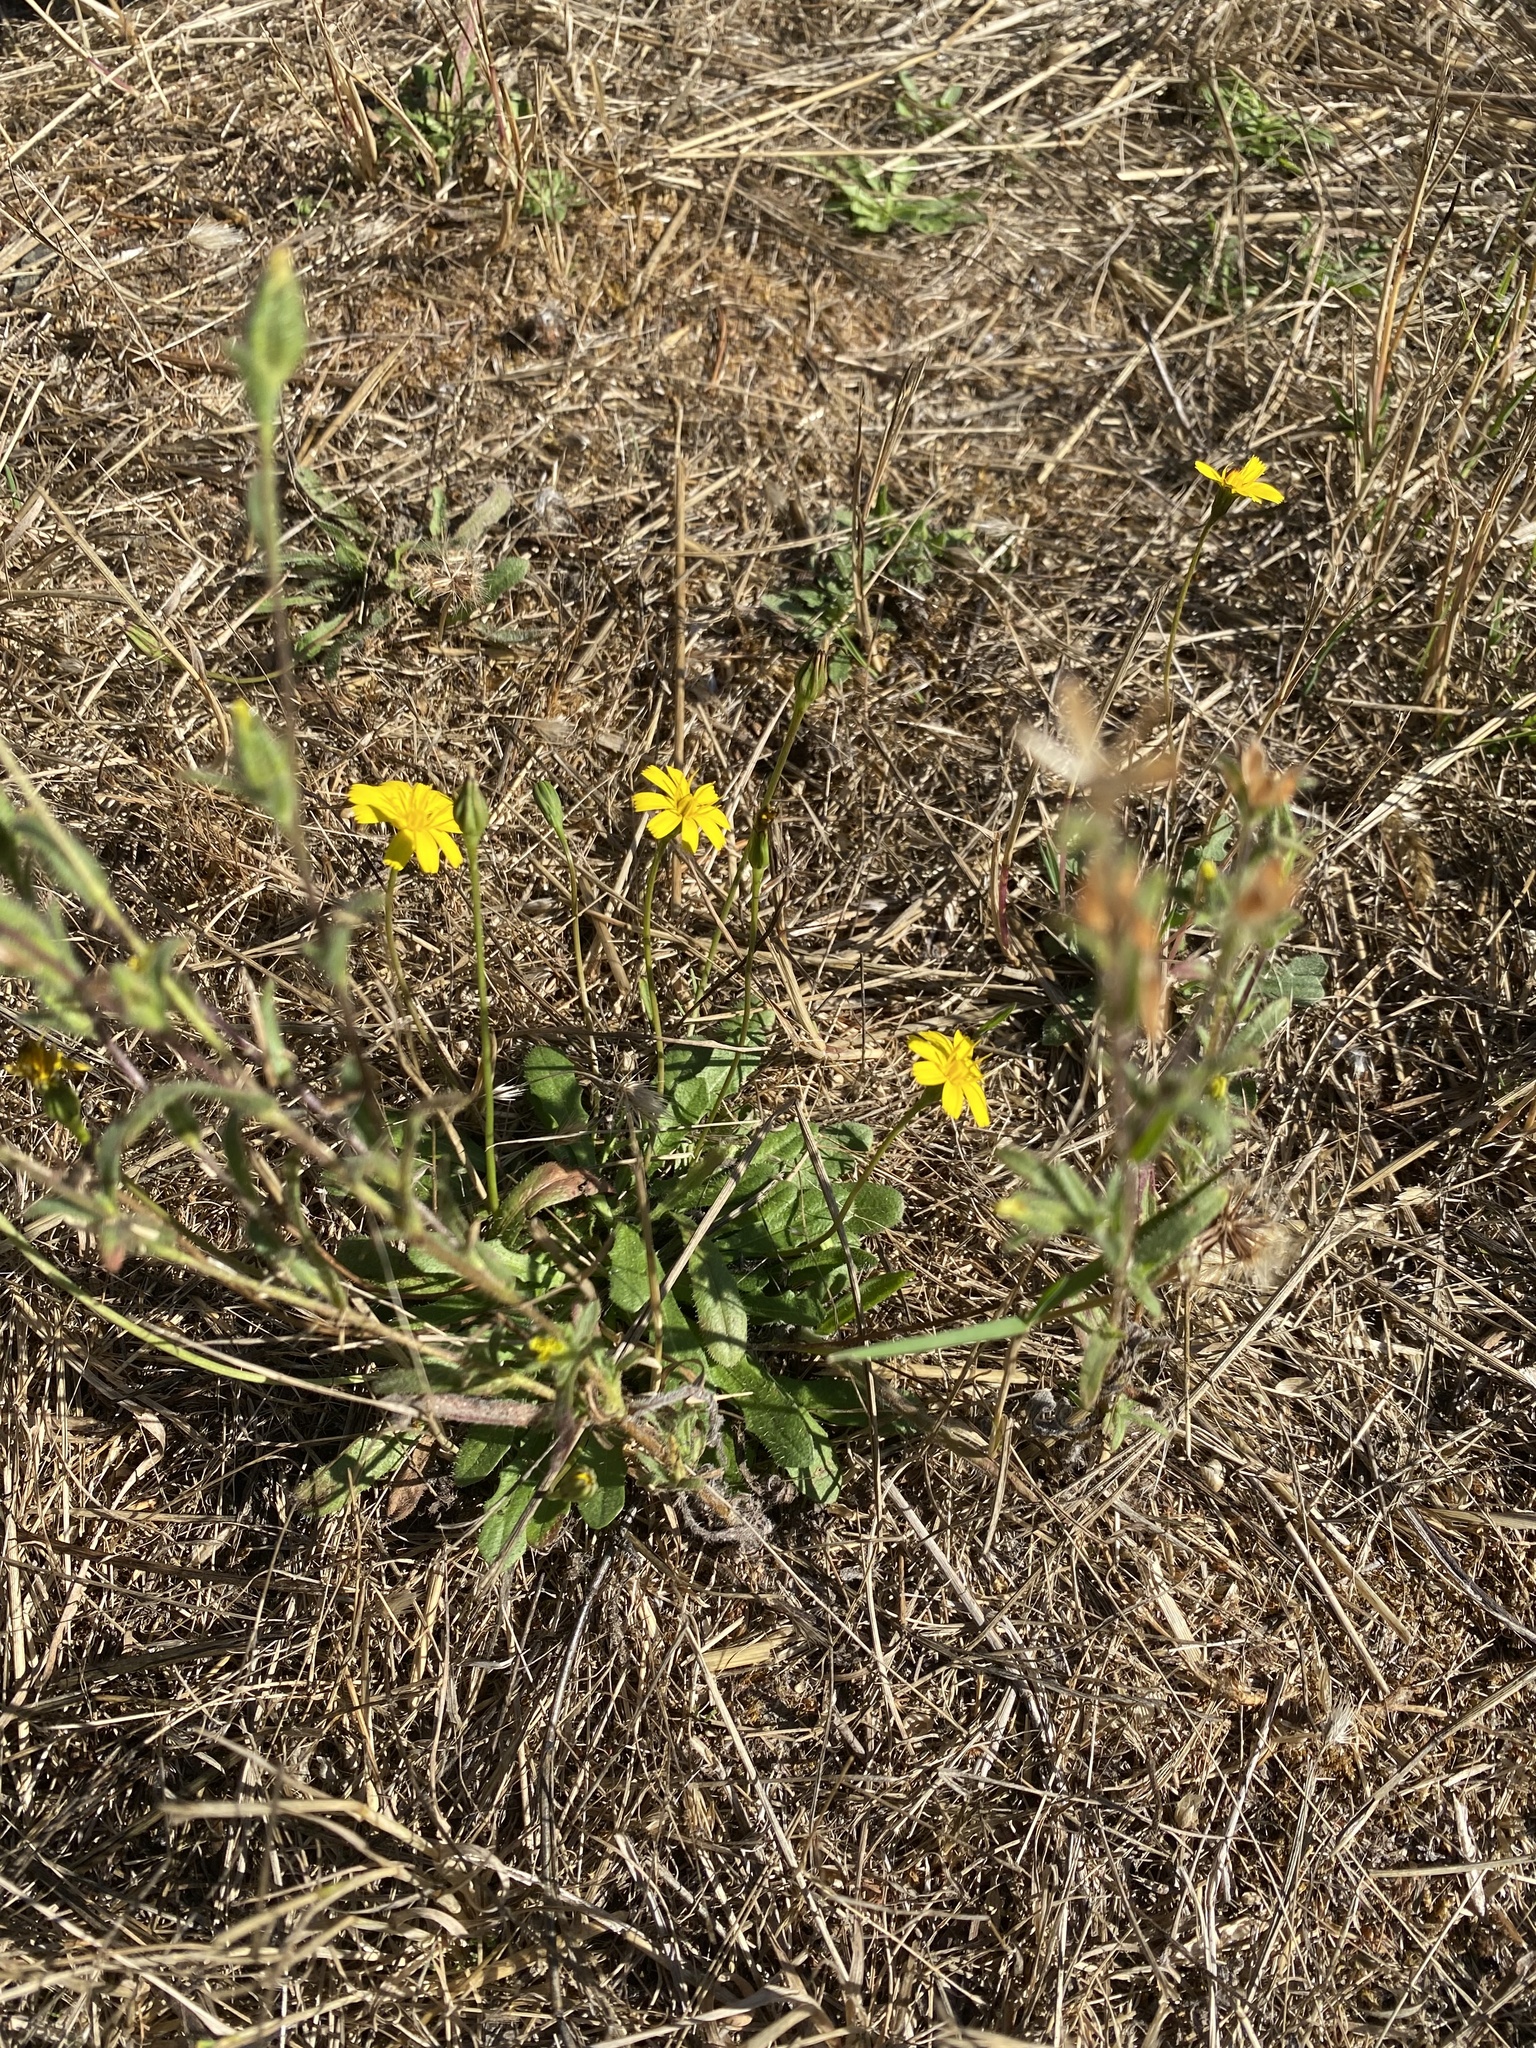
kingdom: Plantae
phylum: Tracheophyta
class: Magnoliopsida
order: Asterales
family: Asteraceae
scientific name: Asteraceae
